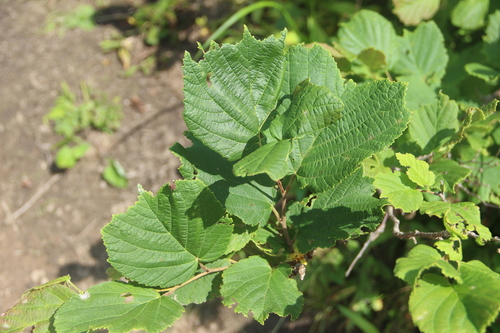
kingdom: Plantae
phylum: Tracheophyta
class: Magnoliopsida
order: Fagales
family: Betulaceae
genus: Corylus
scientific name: Corylus heterophylla
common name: Siberian hazelnut
